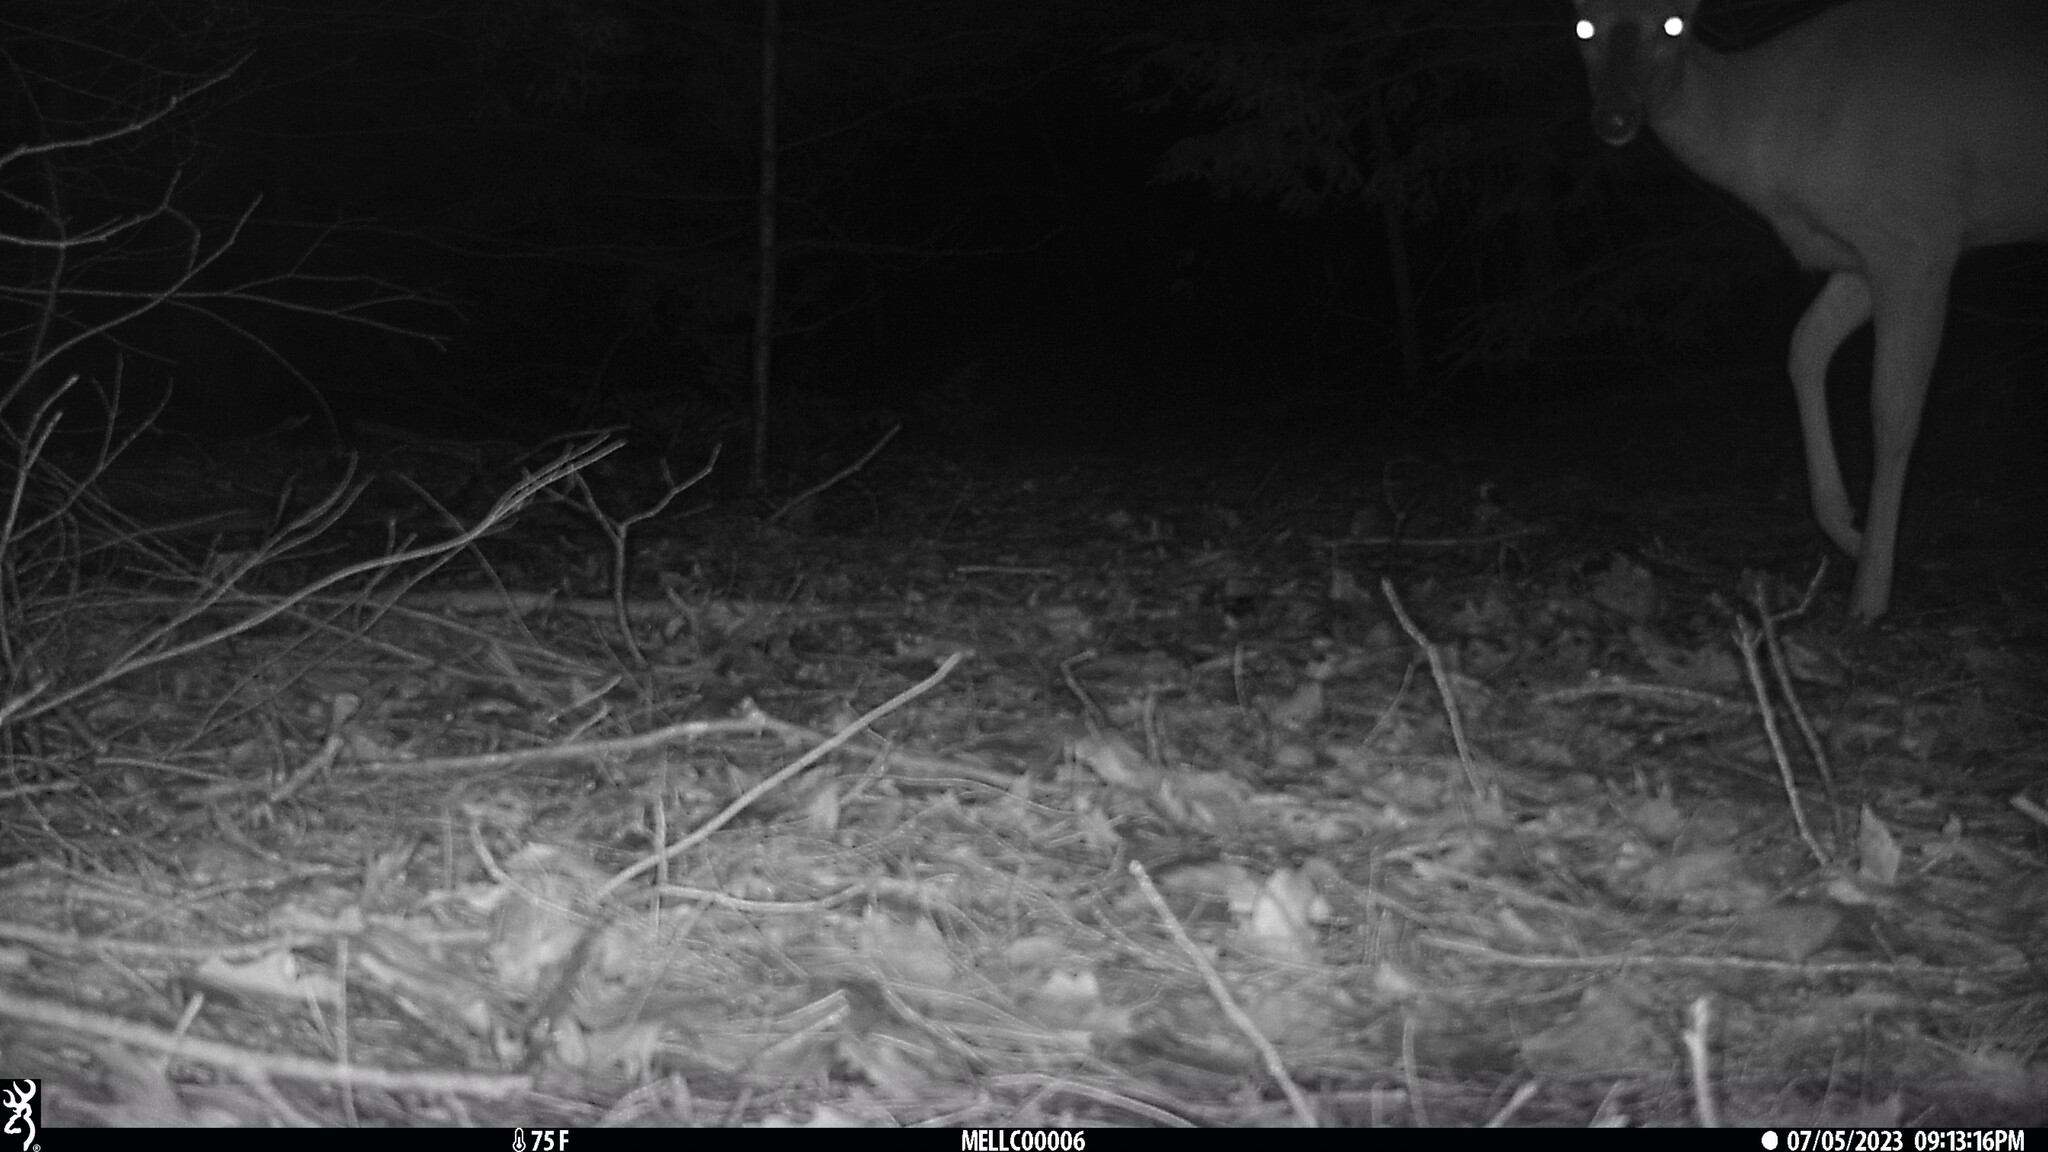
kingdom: Animalia
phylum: Chordata
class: Mammalia
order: Artiodactyla
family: Cervidae
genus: Odocoileus
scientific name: Odocoileus virginianus
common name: White-tailed deer
